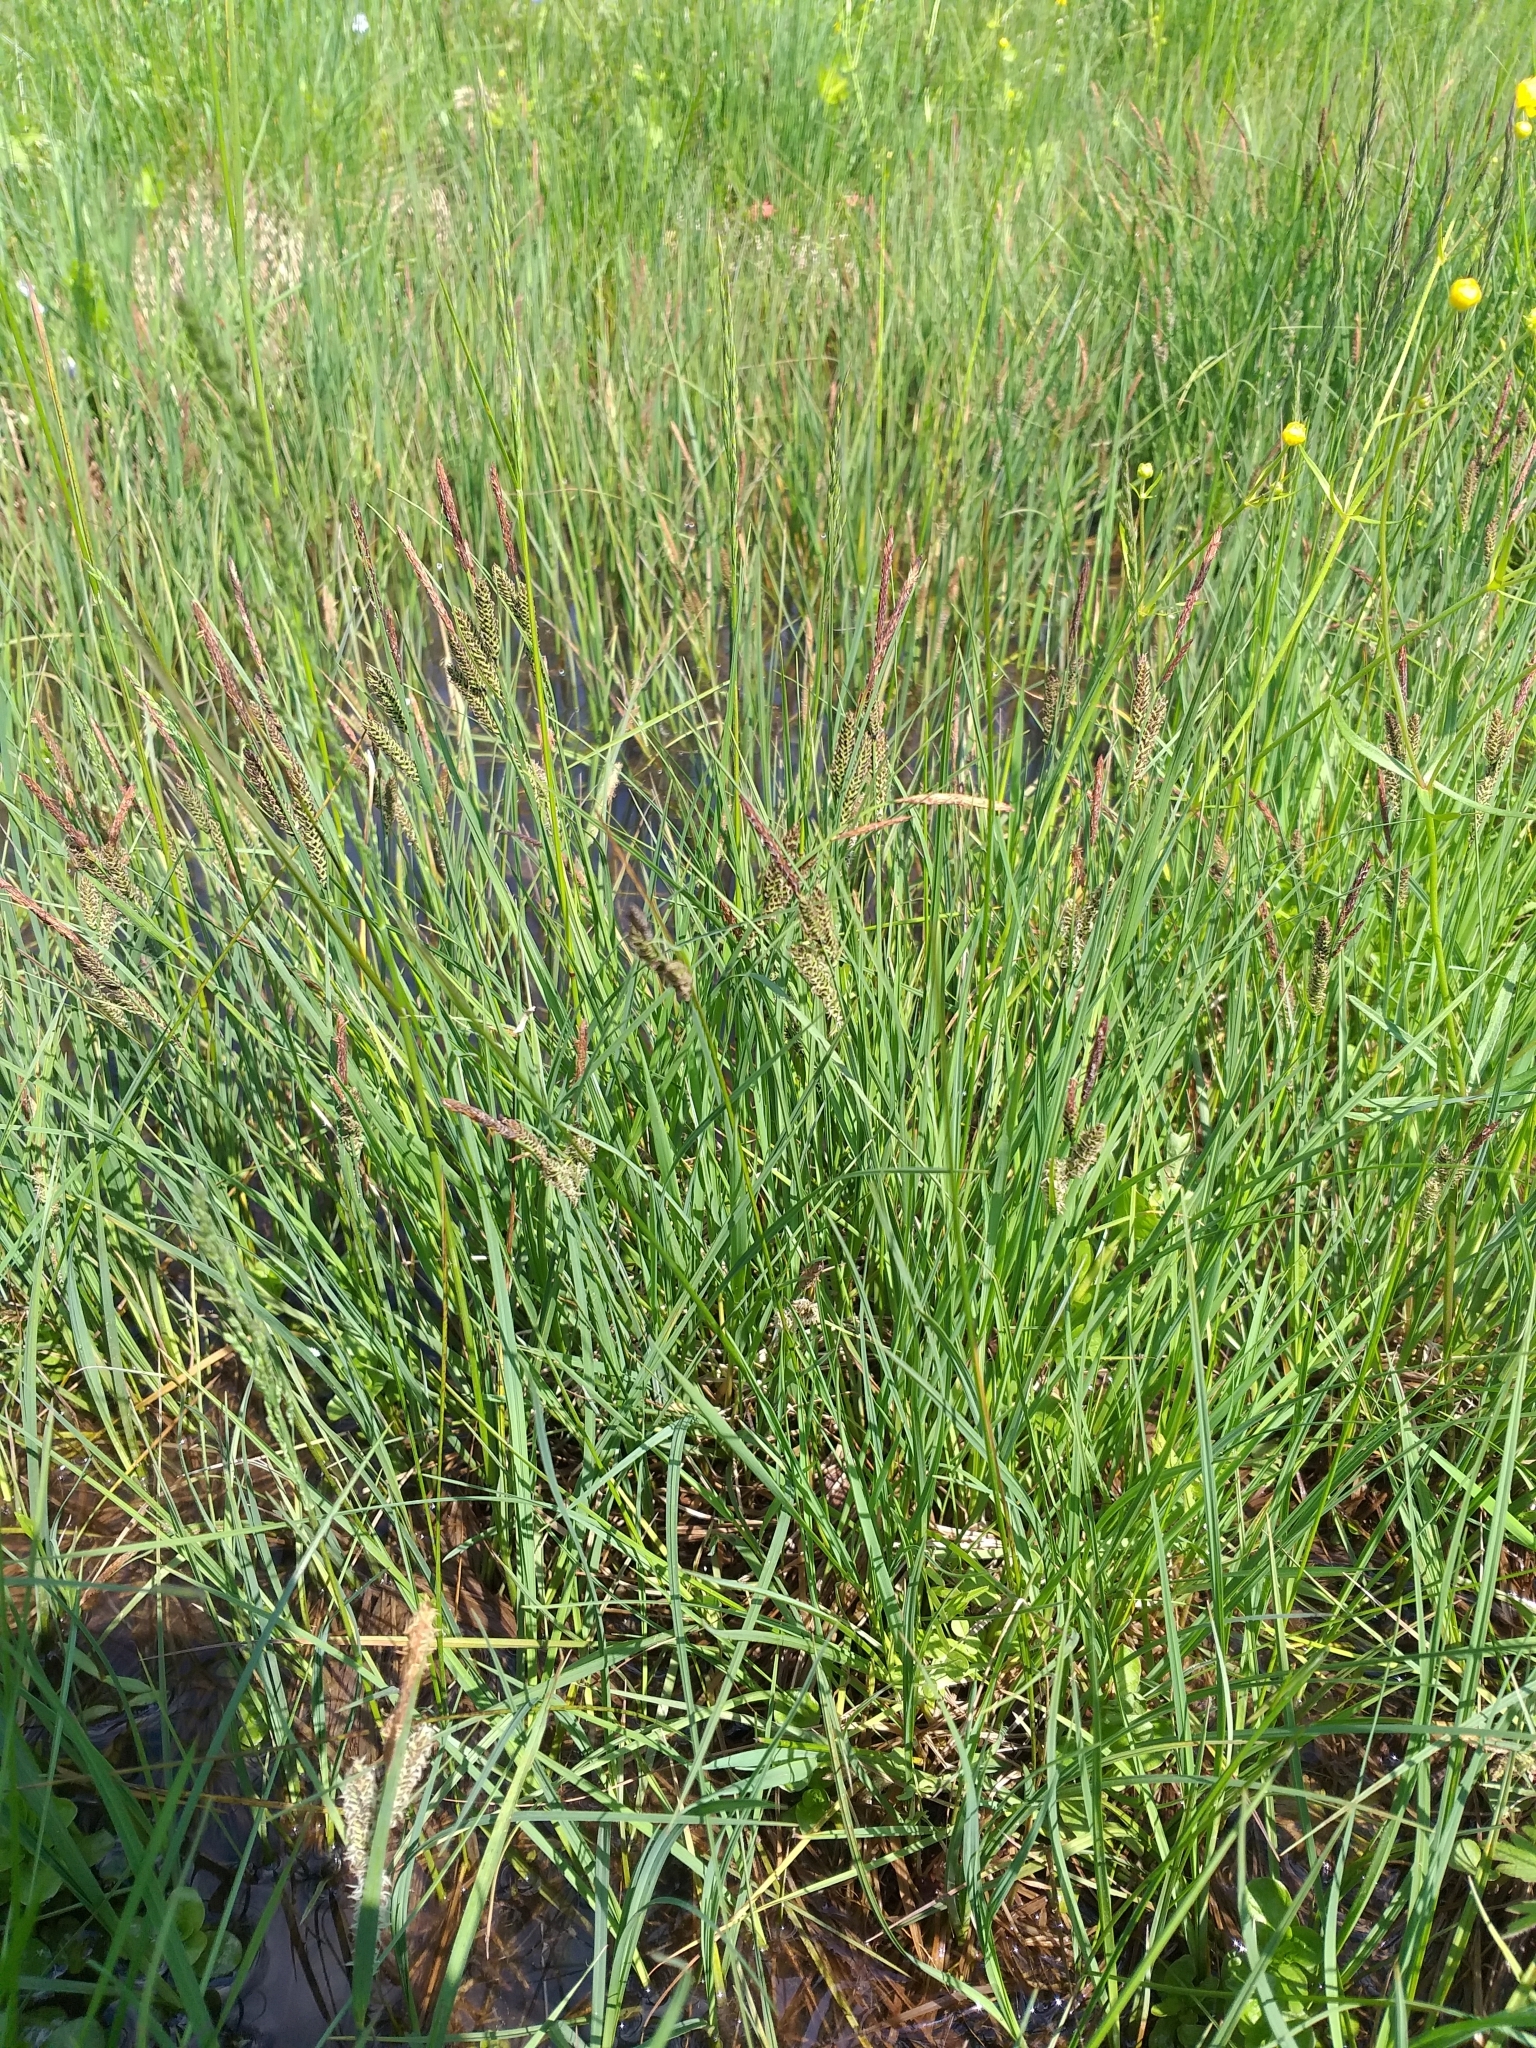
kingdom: Plantae
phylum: Tracheophyta
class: Liliopsida
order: Poales
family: Cyperaceae
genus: Carex
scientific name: Carex nigra
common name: Common sedge
